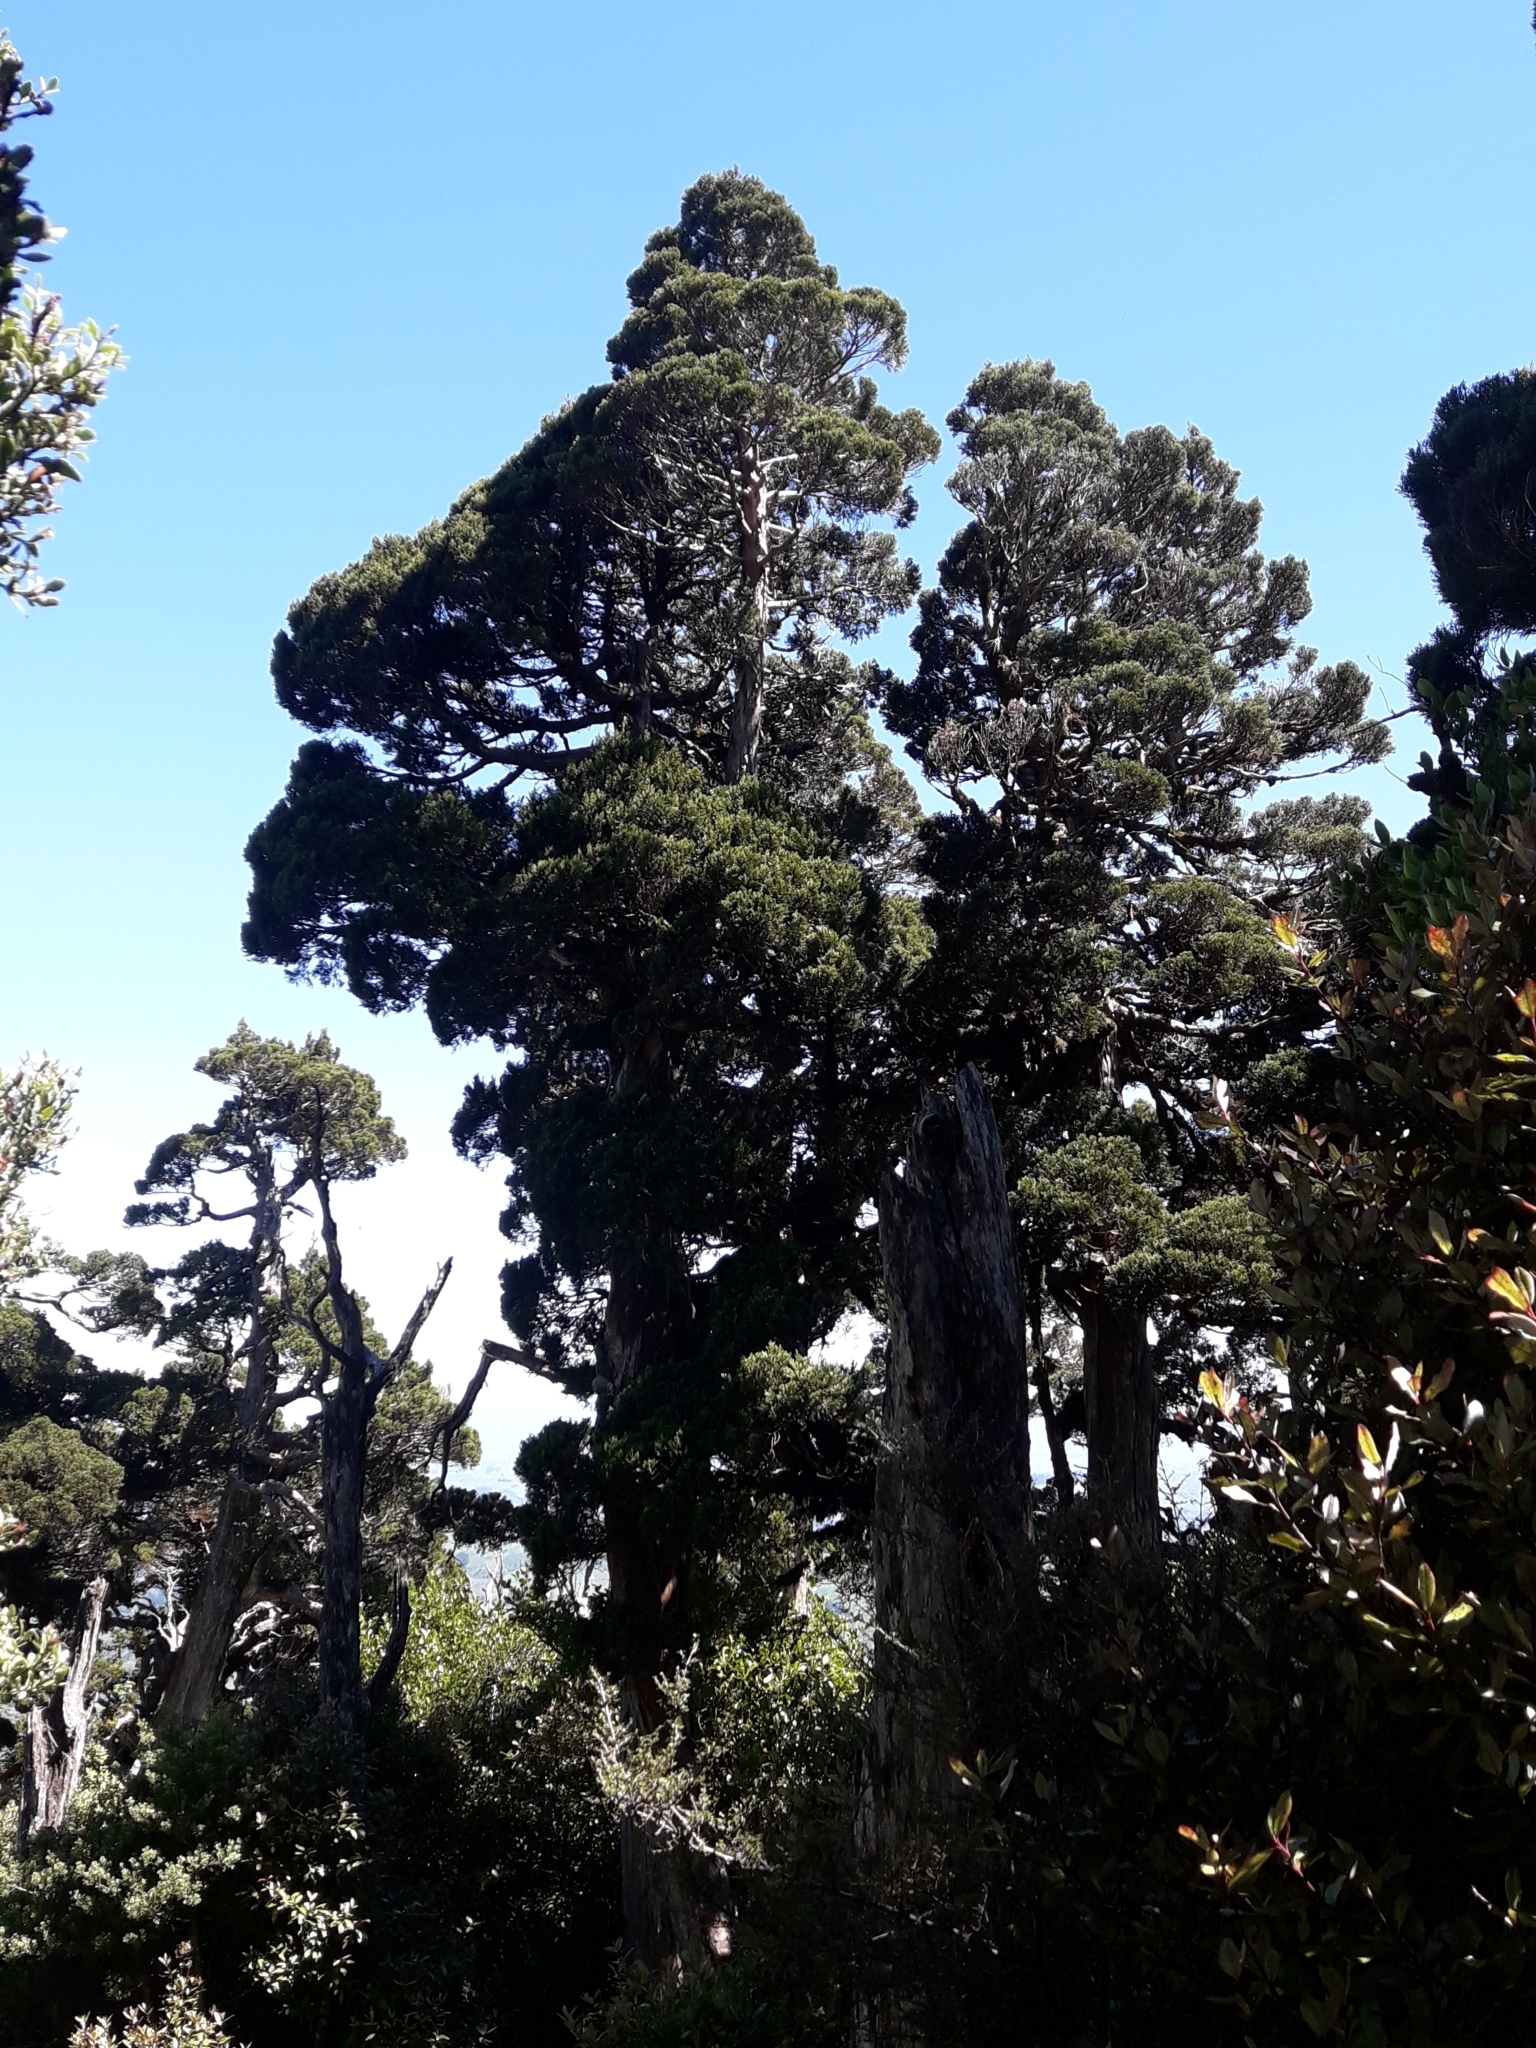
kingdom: Plantae
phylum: Tracheophyta
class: Pinopsida
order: Pinales
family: Cupressaceae
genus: Libocedrus
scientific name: Libocedrus bidwillii
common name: Cedar
